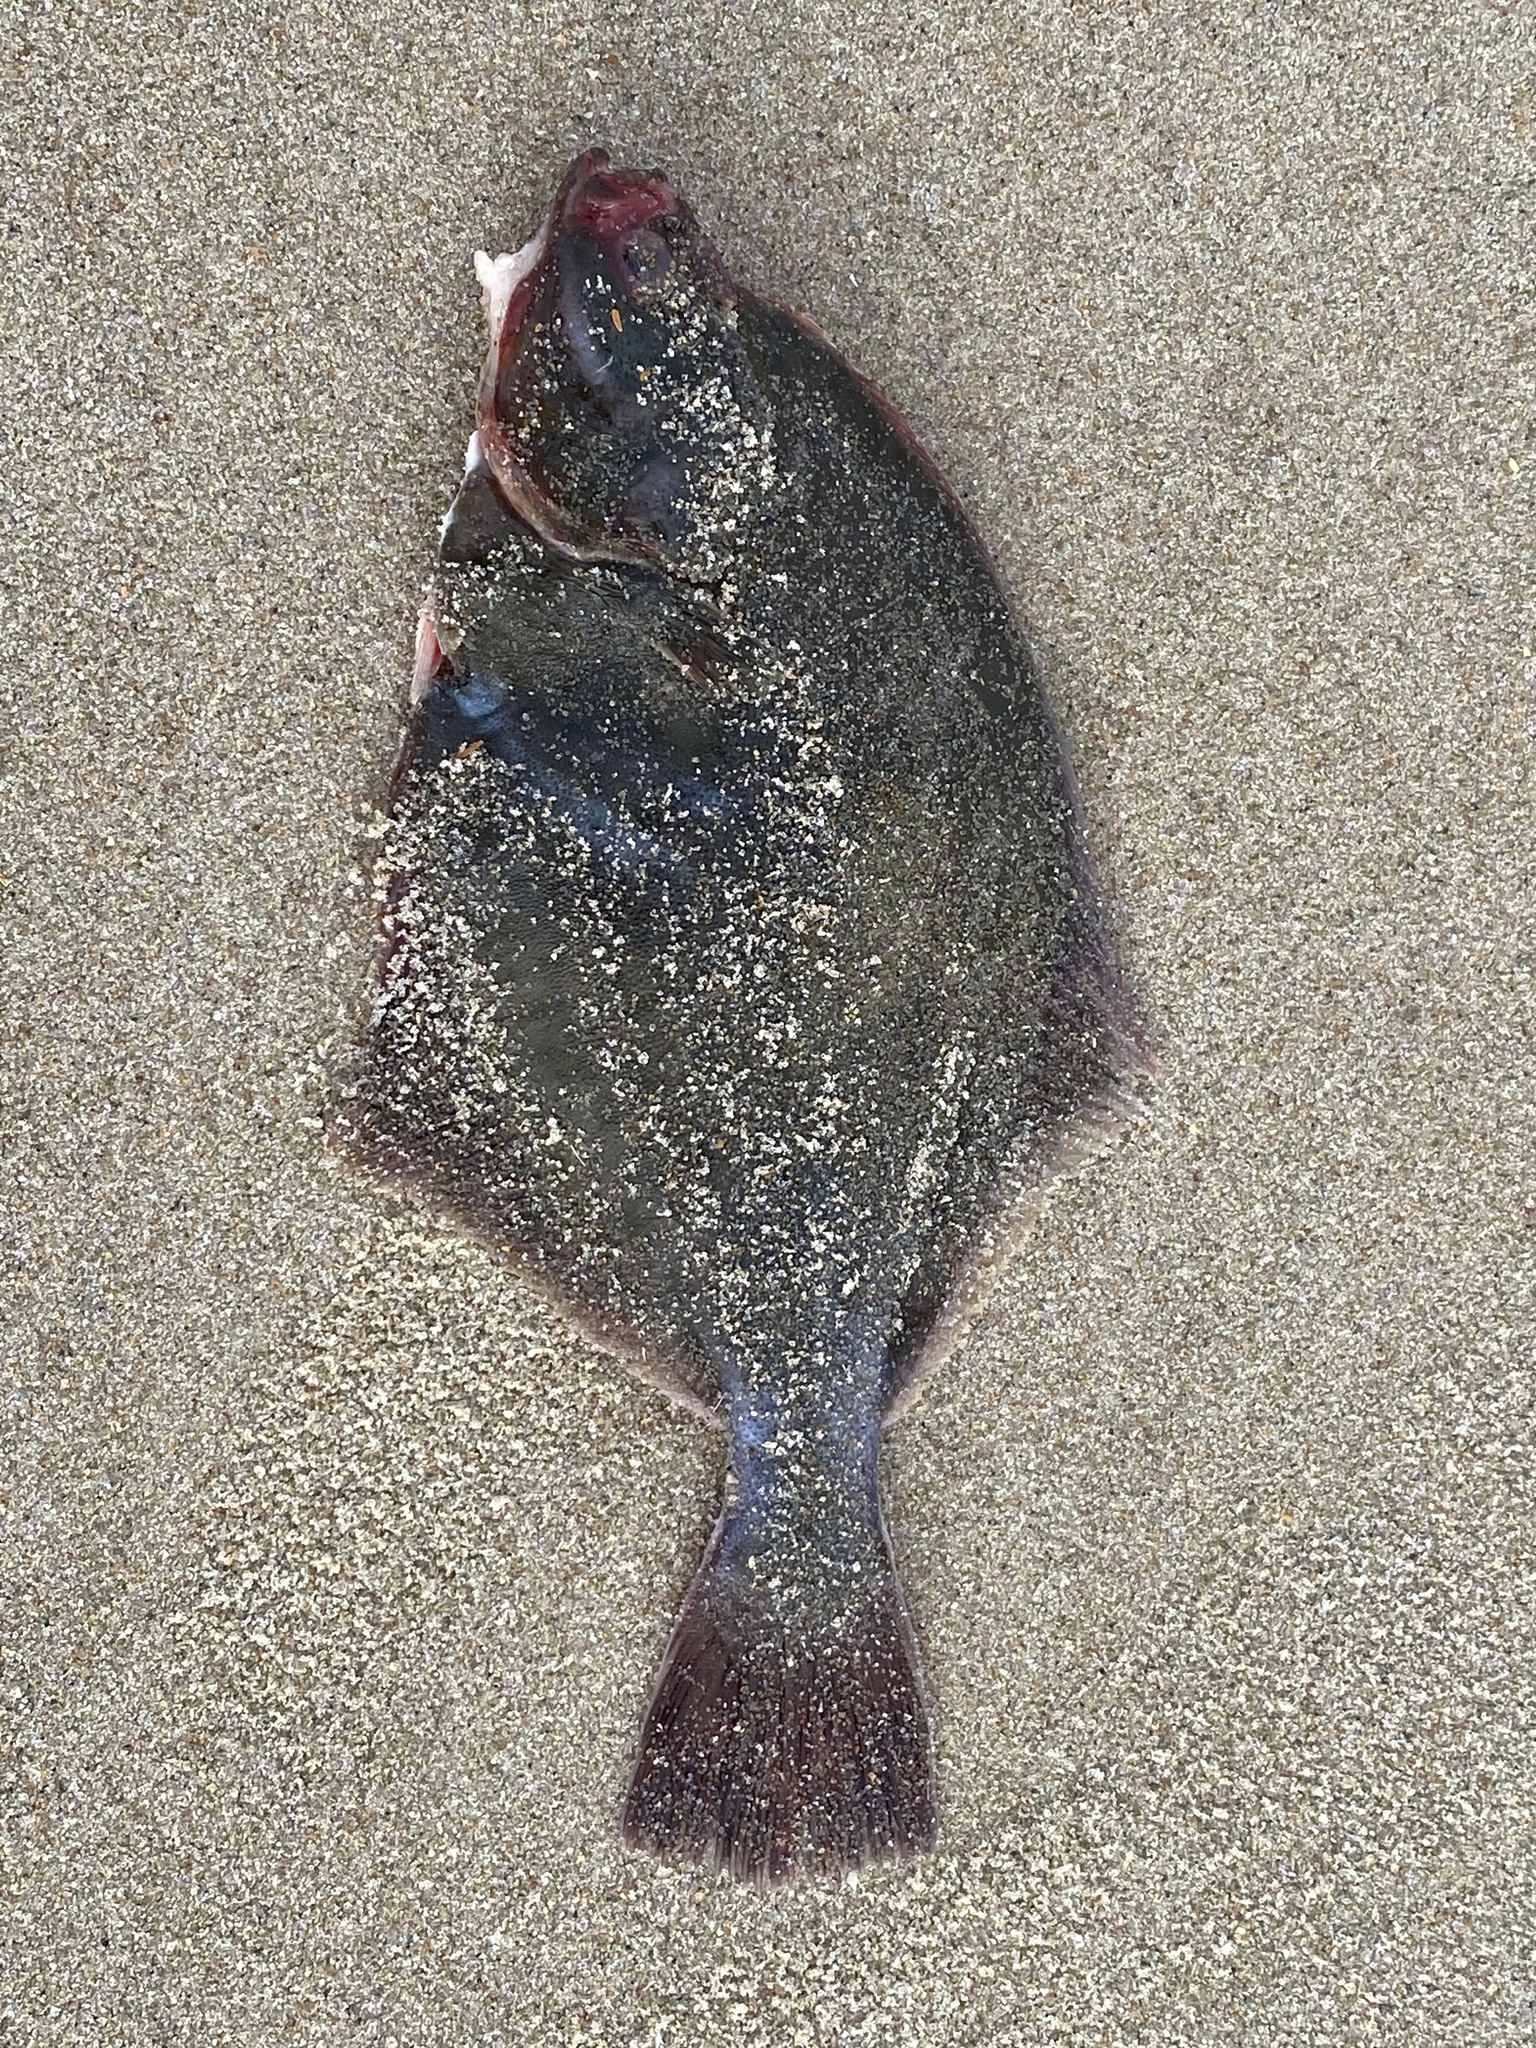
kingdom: Animalia
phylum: Chordata
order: Pleuronectiformes
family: Pleuronectidae
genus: Platichthys
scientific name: Platichthys flesus
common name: European flounder
